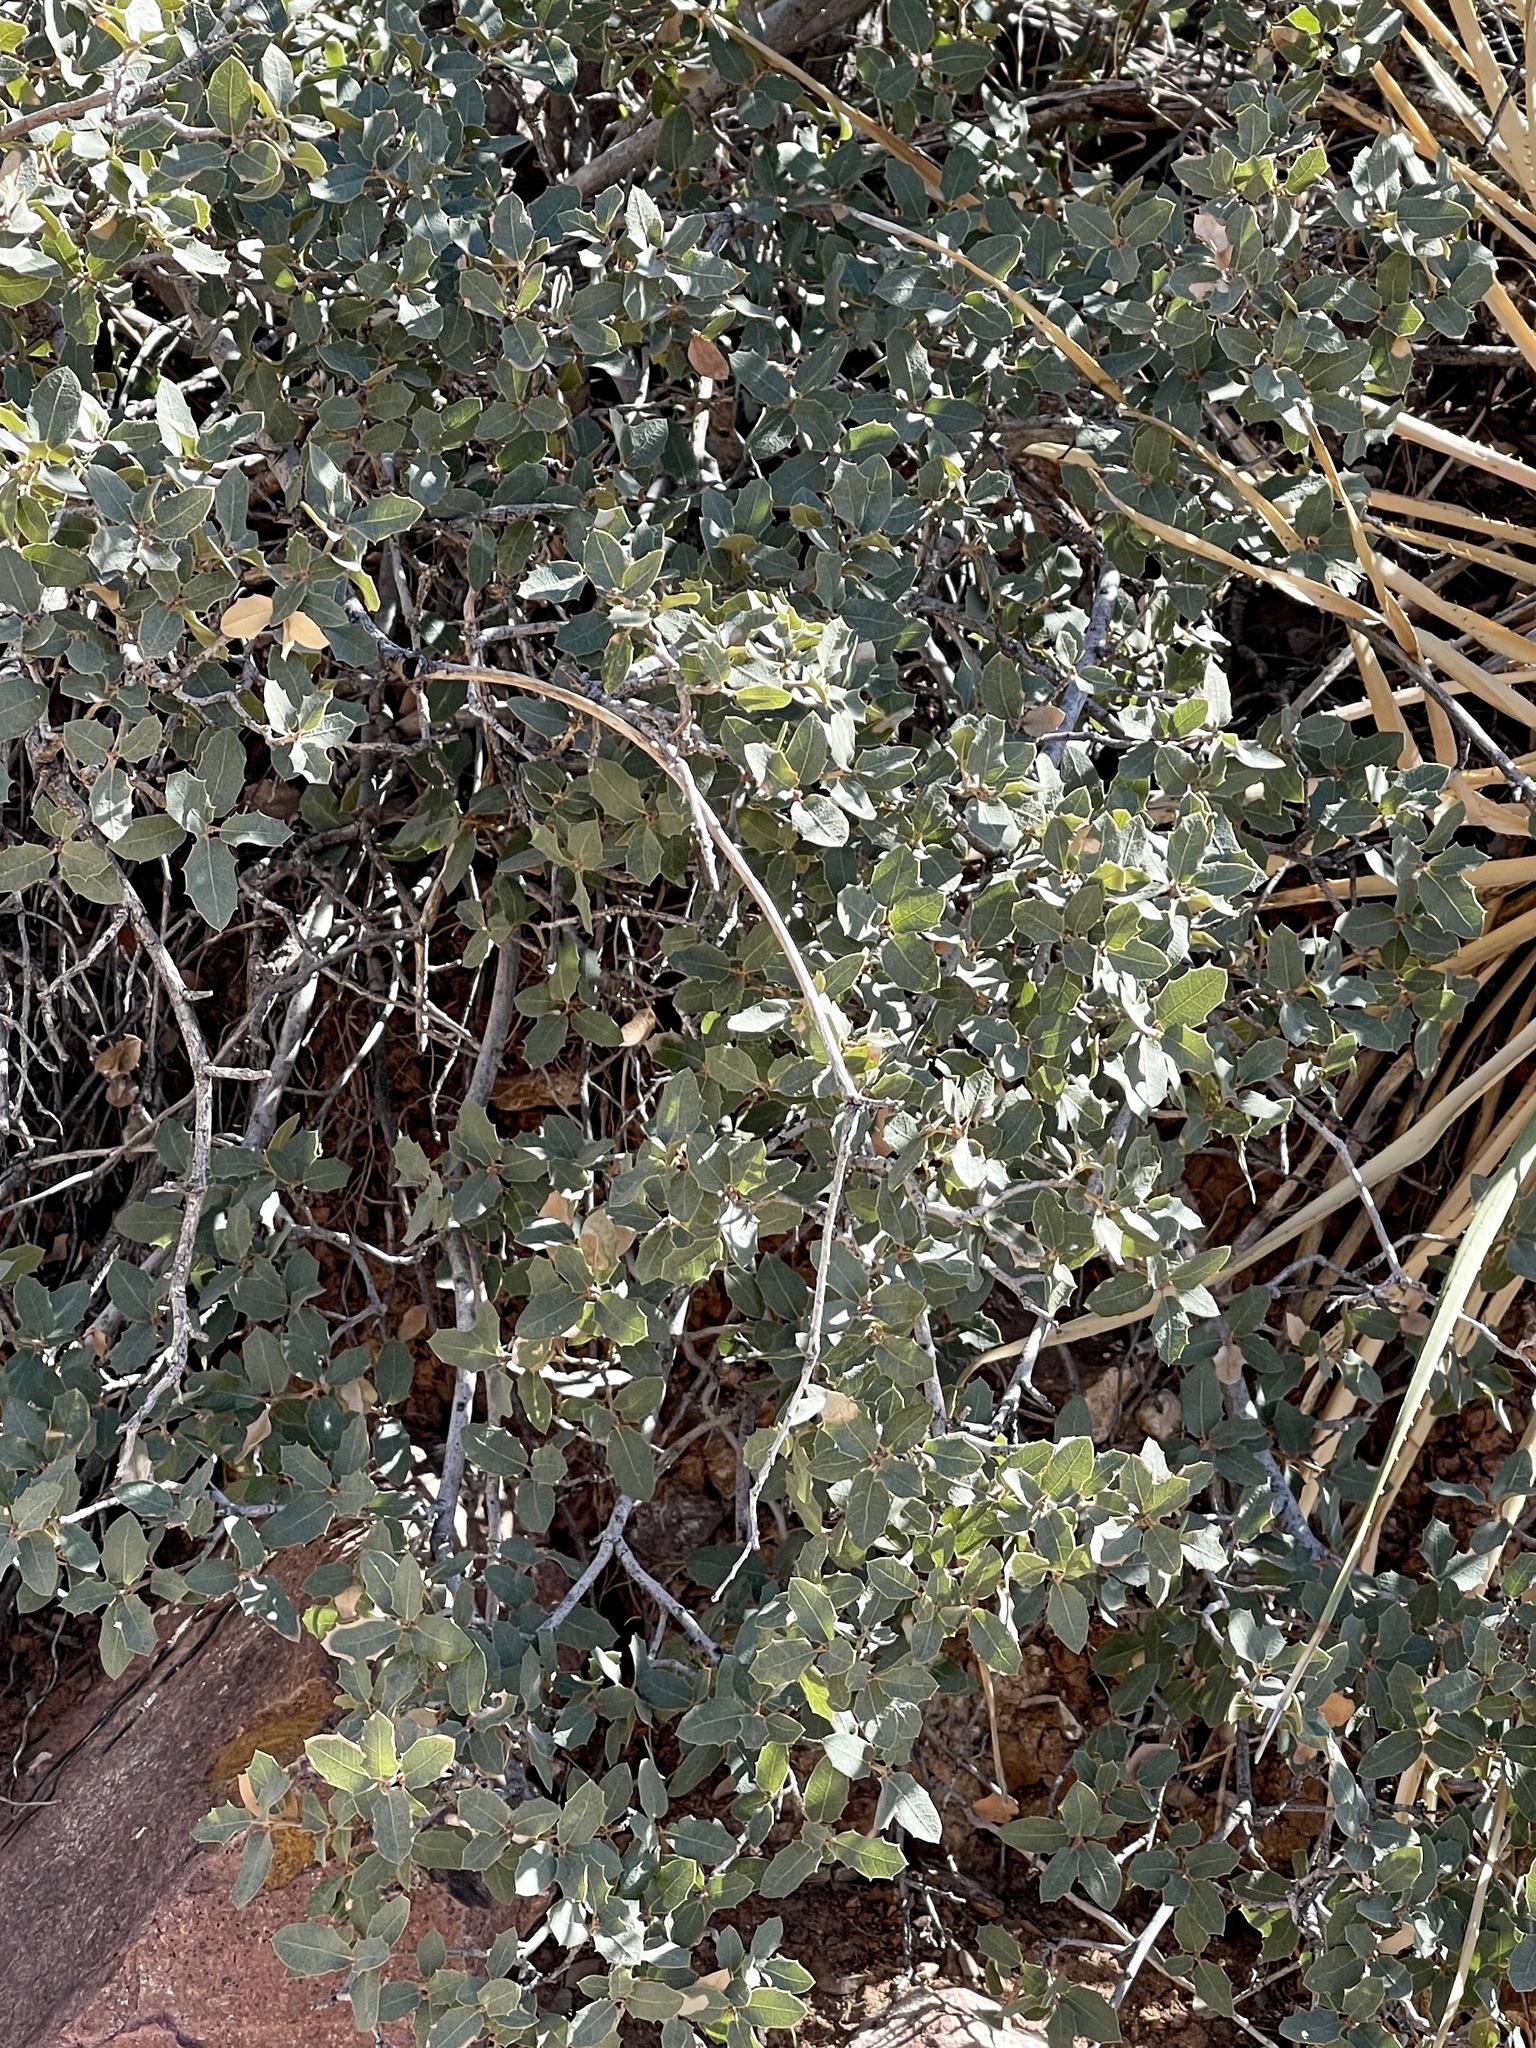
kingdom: Plantae
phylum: Tracheophyta
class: Magnoliopsida
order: Fagales
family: Fagaceae
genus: Quercus
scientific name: Quercus turbinella
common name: Sonoran scrub oak
